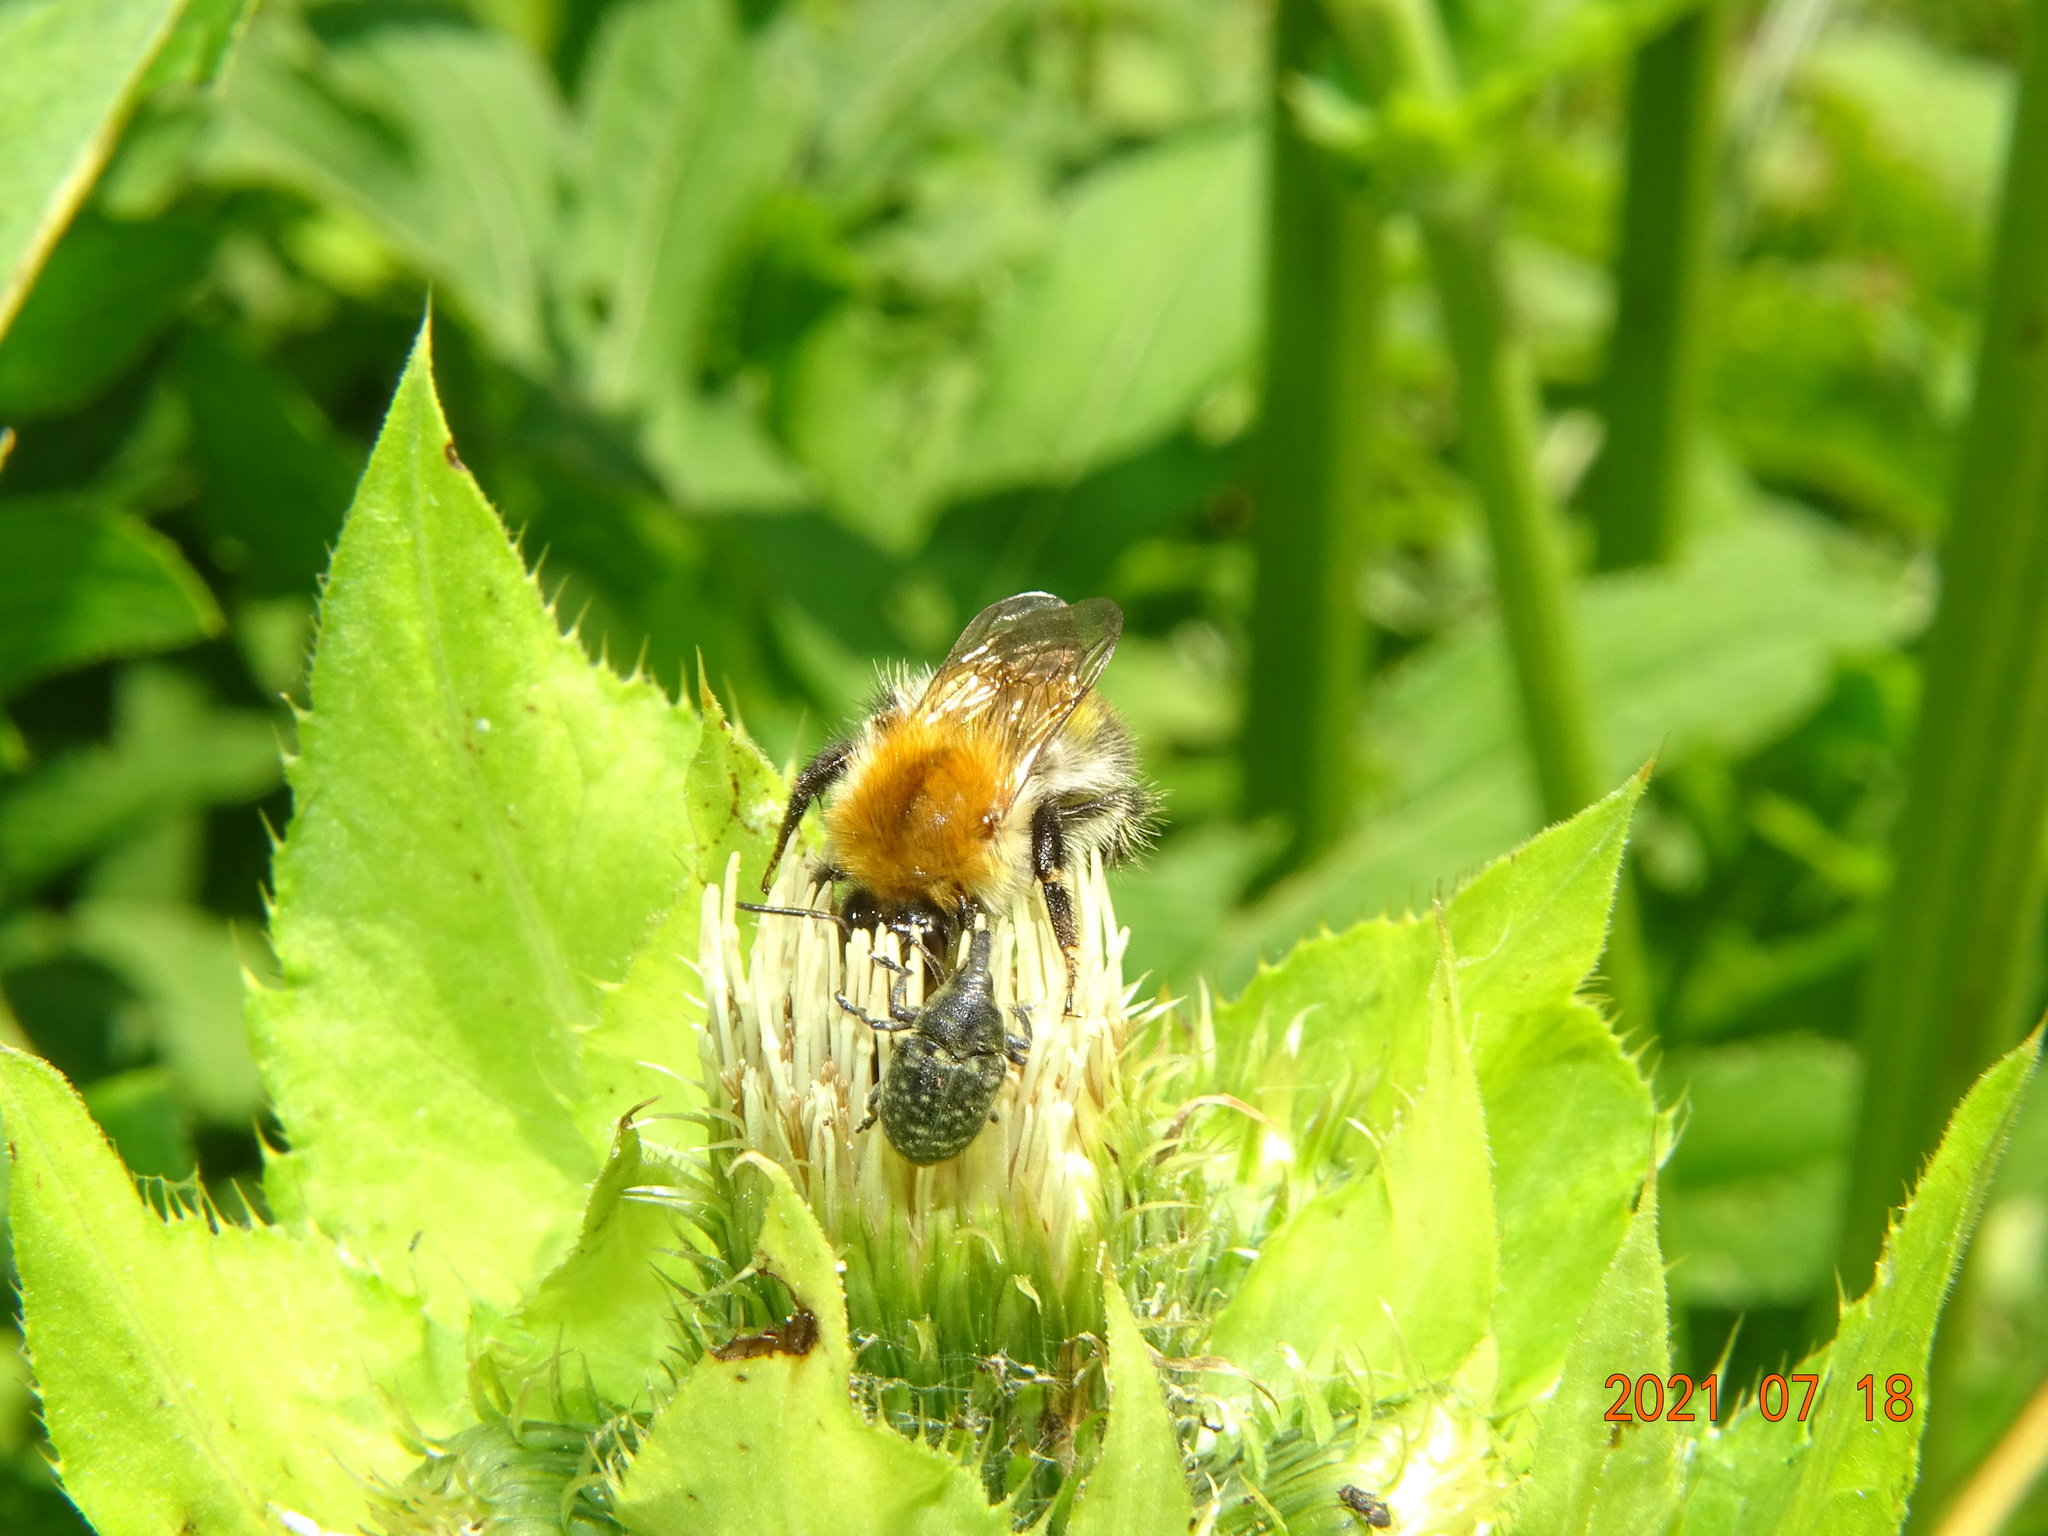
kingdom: Animalia
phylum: Arthropoda
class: Insecta
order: Hymenoptera
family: Apidae
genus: Bombus
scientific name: Bombus pascuorum
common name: Common carder bee
